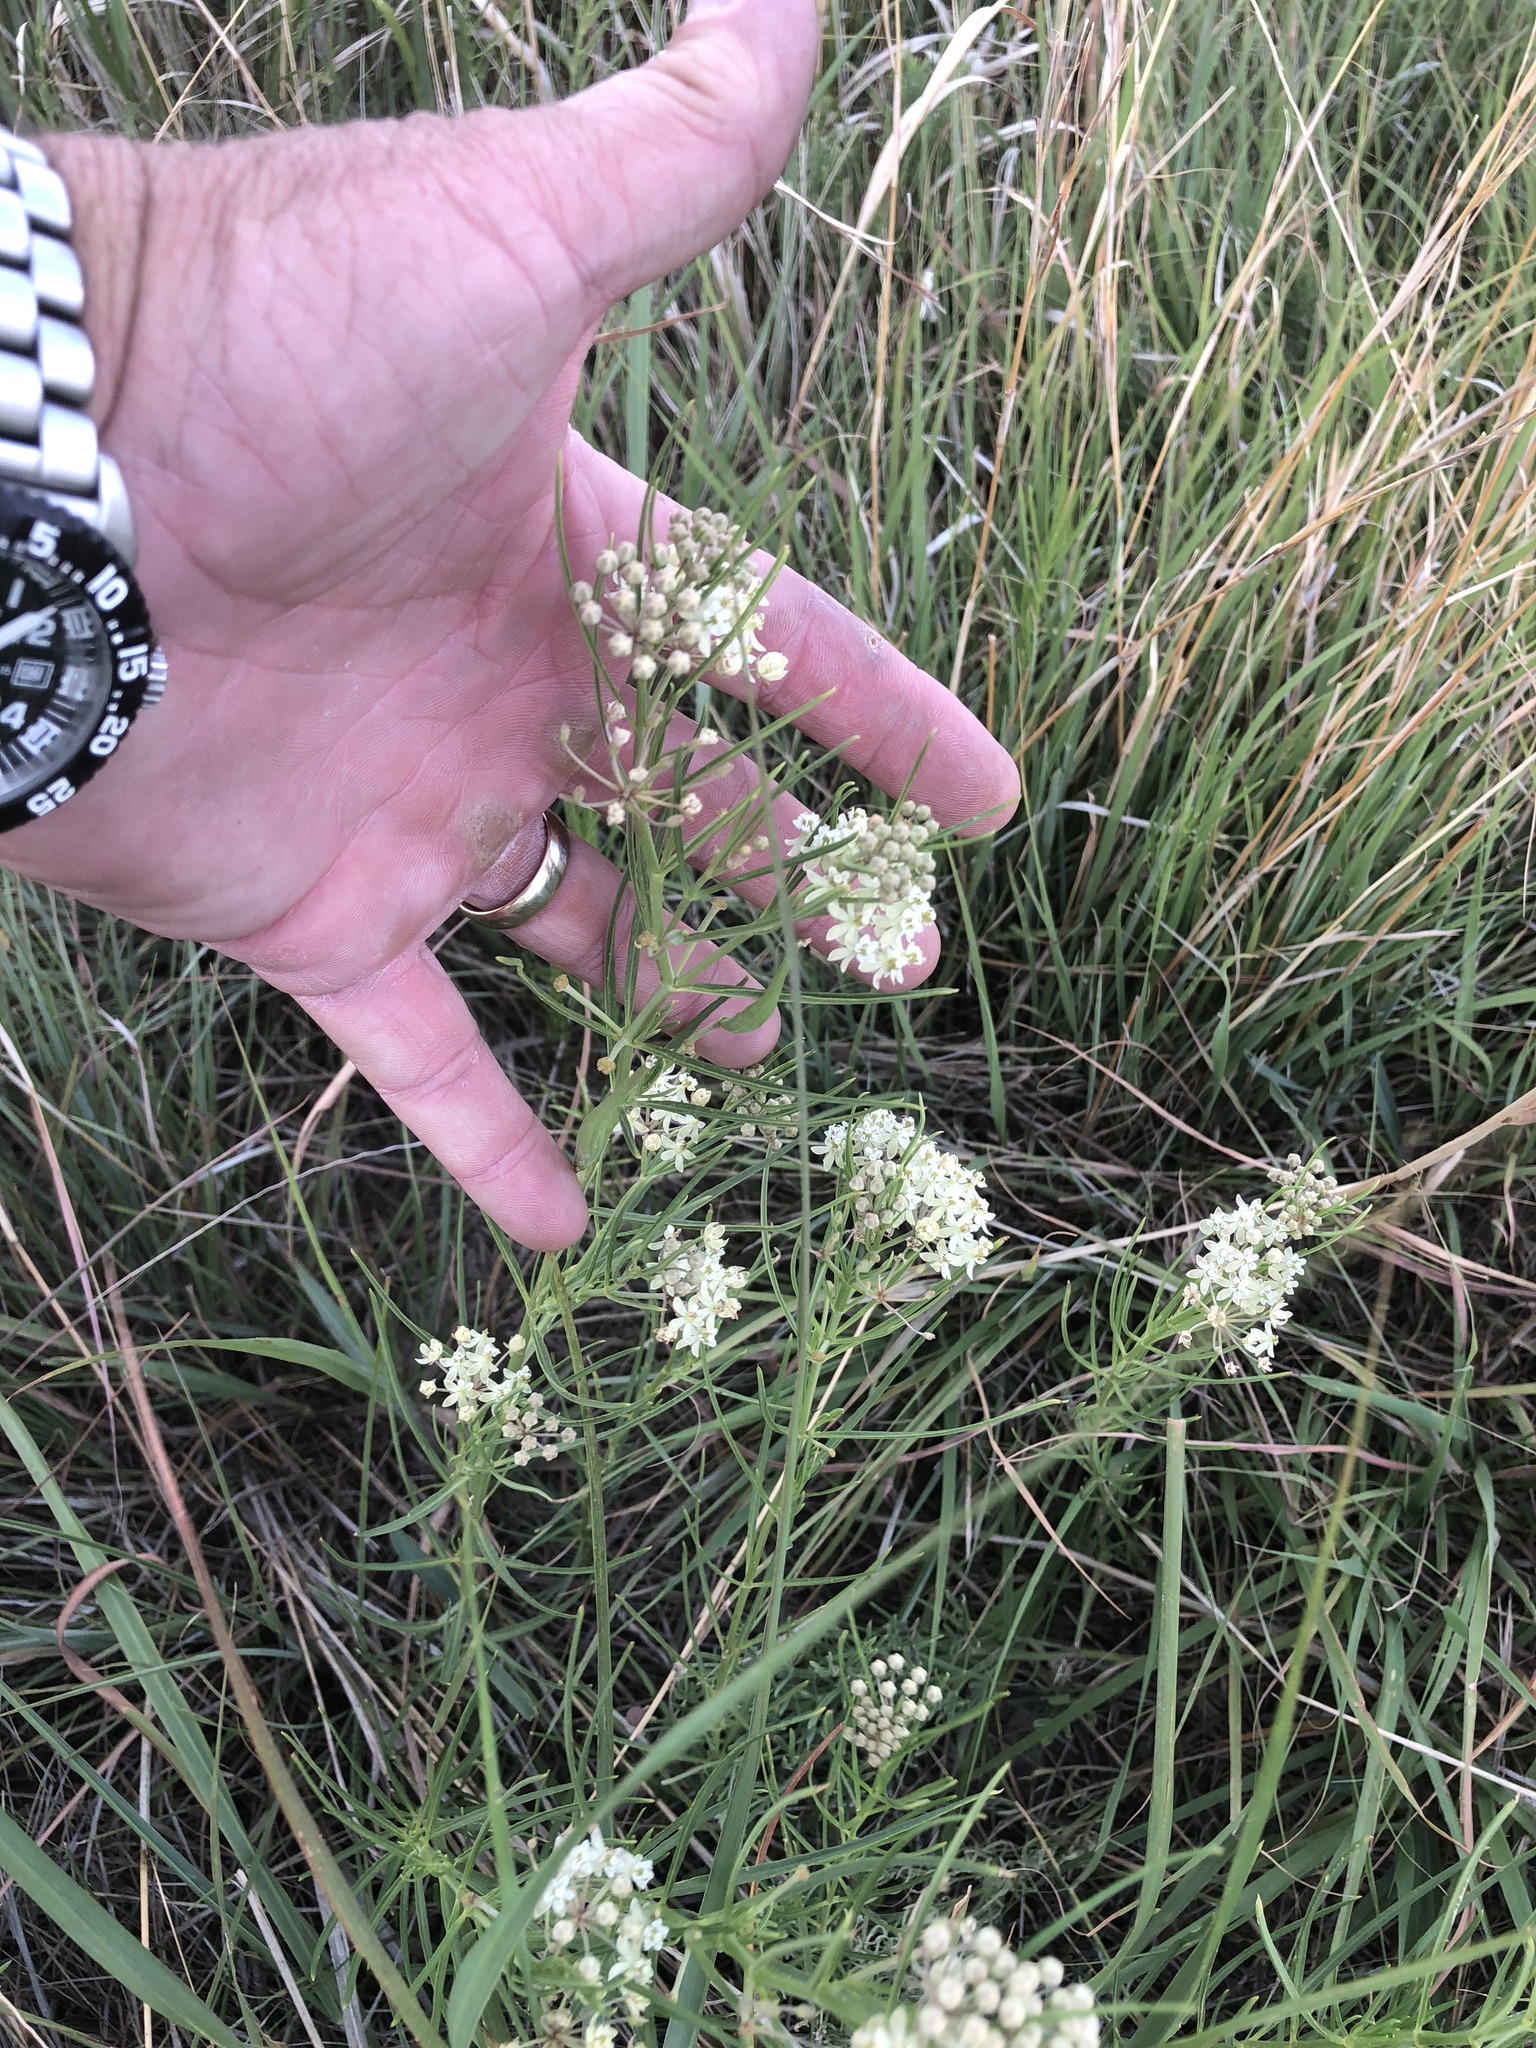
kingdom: Plantae
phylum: Tracheophyta
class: Magnoliopsida
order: Gentianales
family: Apocynaceae
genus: Asclepias
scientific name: Asclepias subverticillata
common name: Horsetail milkweed
